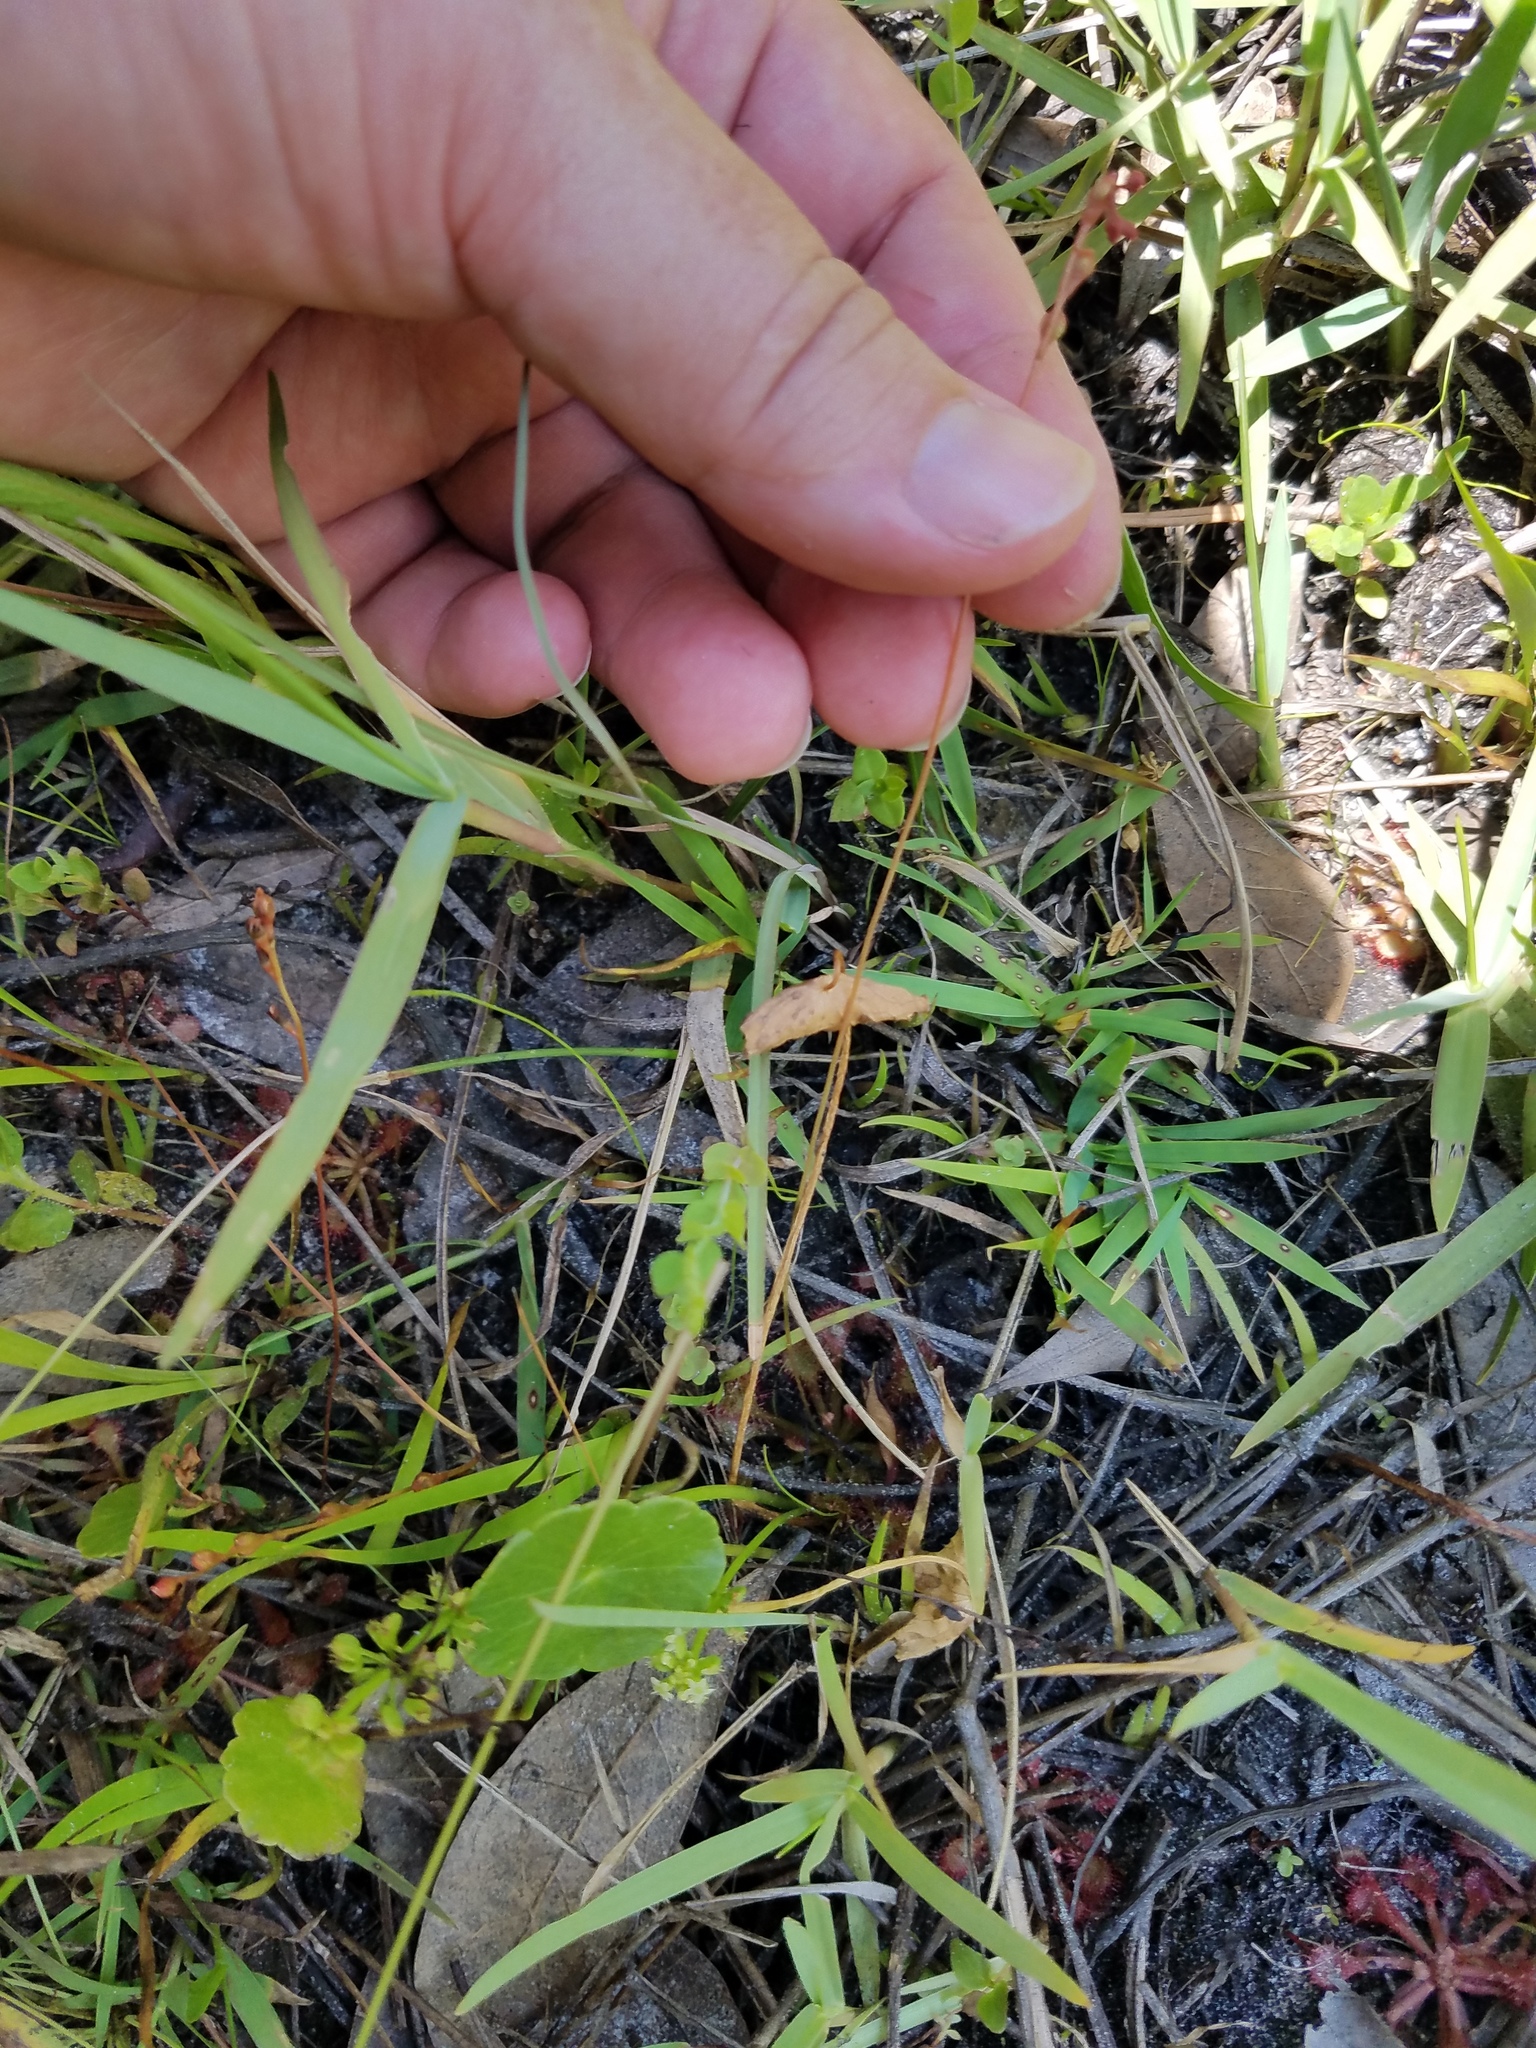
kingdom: Plantae
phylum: Tracheophyta
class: Magnoliopsida
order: Caryophyllales
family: Droseraceae
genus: Drosera
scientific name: Drosera capillaris
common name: Pink sundew
